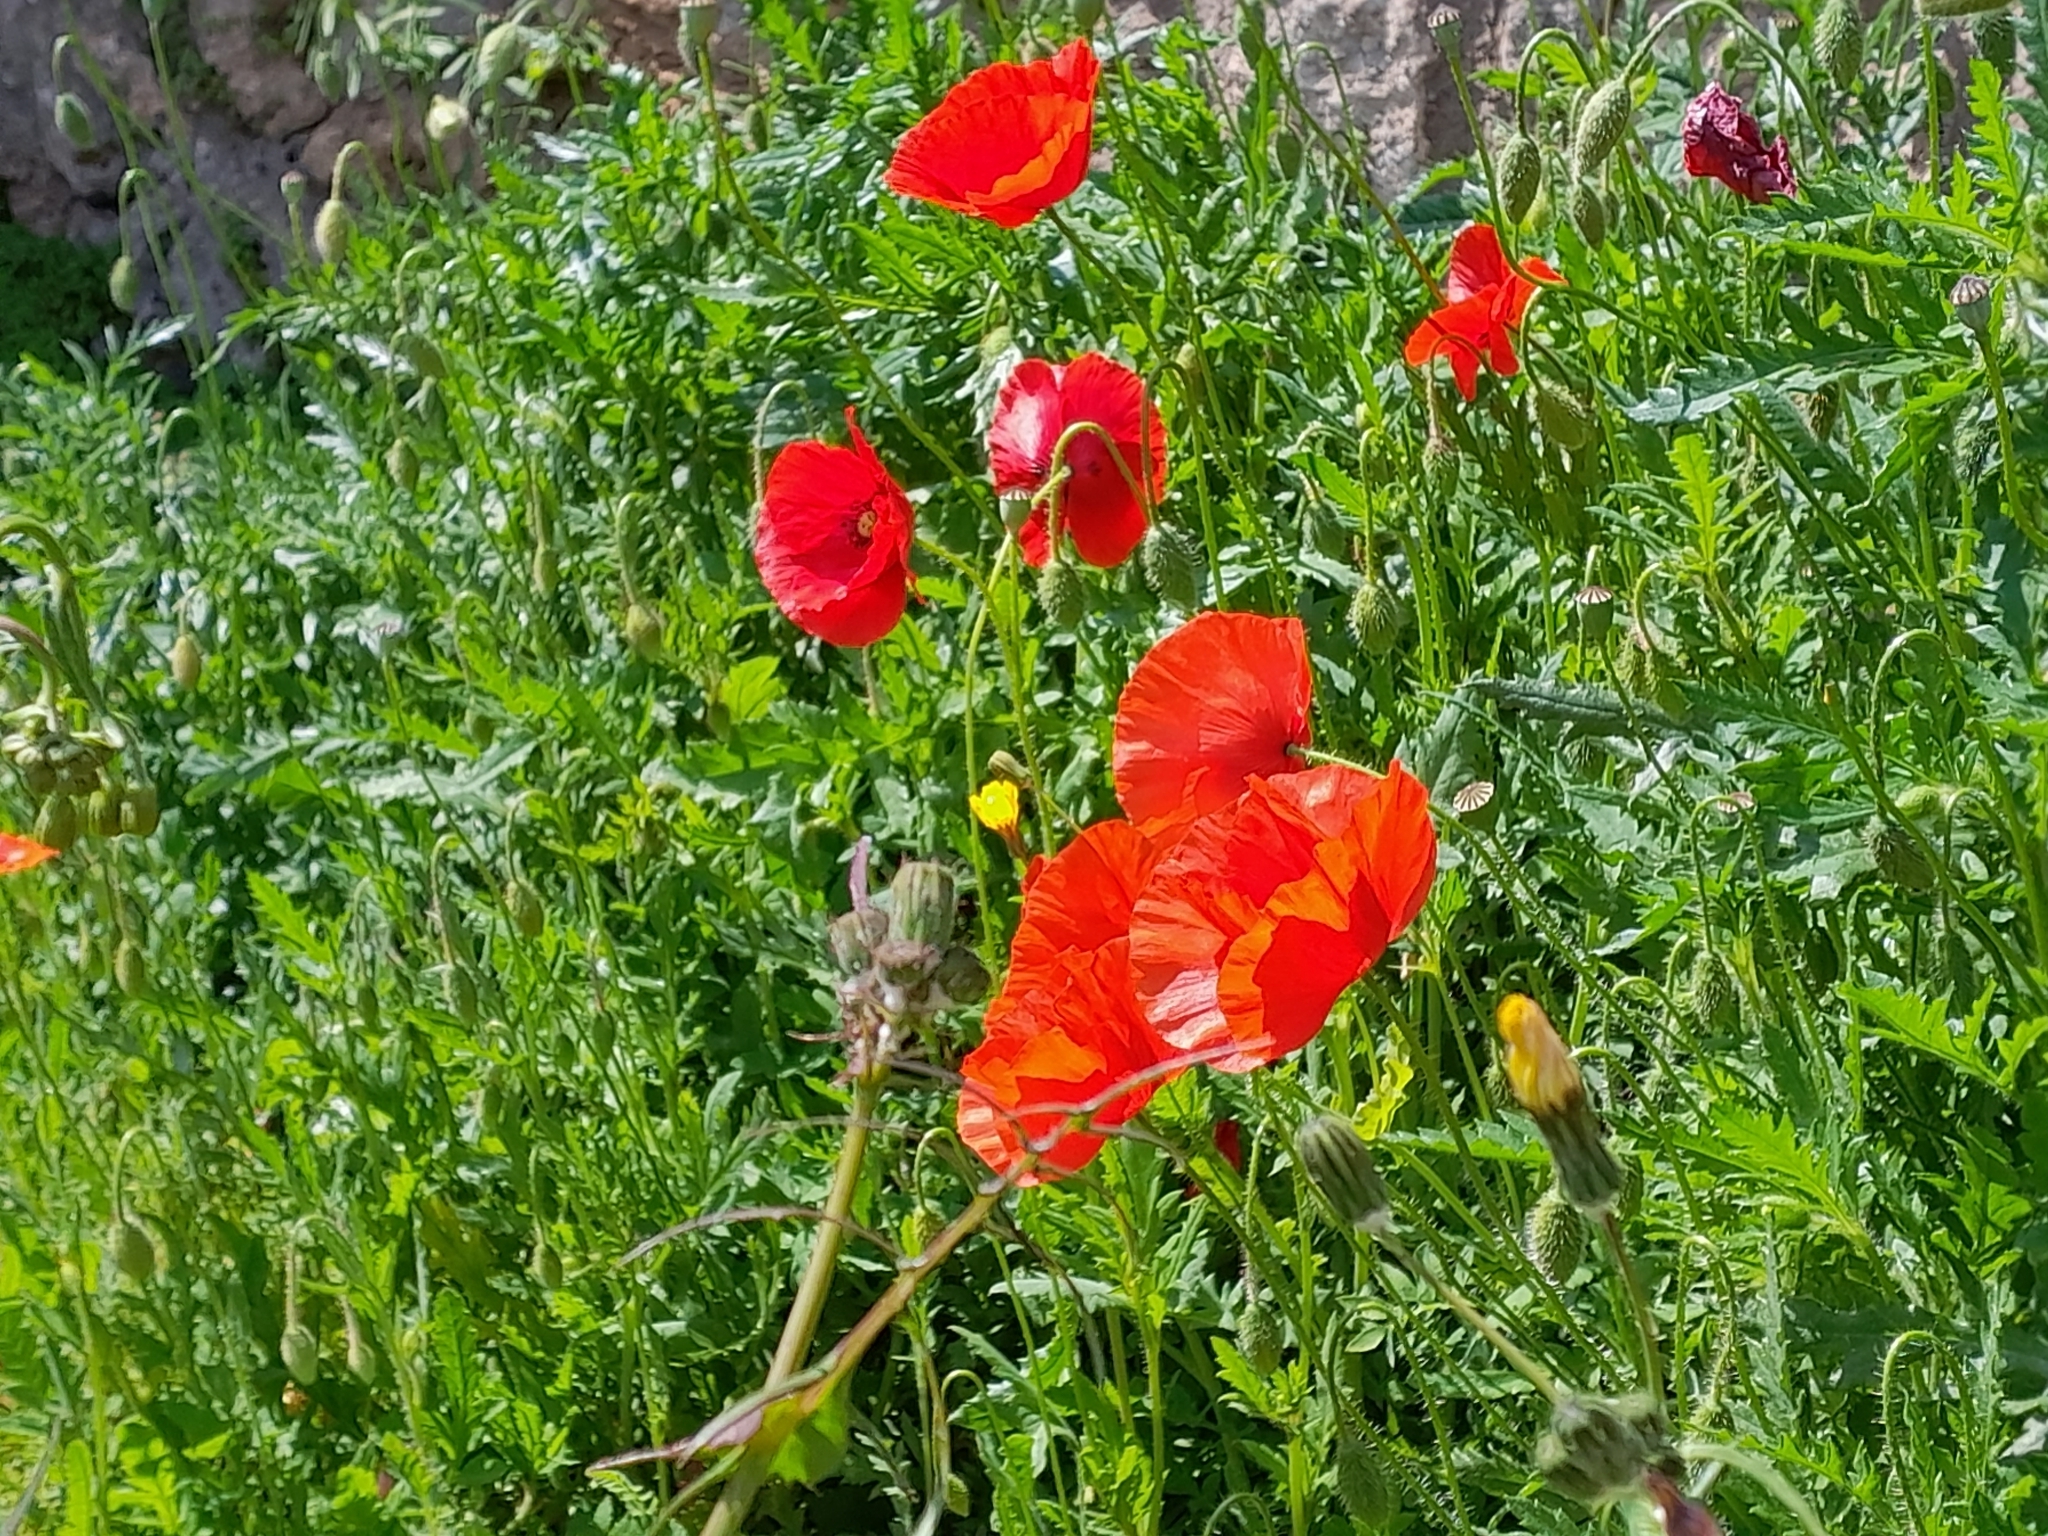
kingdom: Plantae
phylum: Tracheophyta
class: Magnoliopsida
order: Ranunculales
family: Papaveraceae
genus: Papaver
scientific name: Papaver rhoeas
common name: Corn poppy
